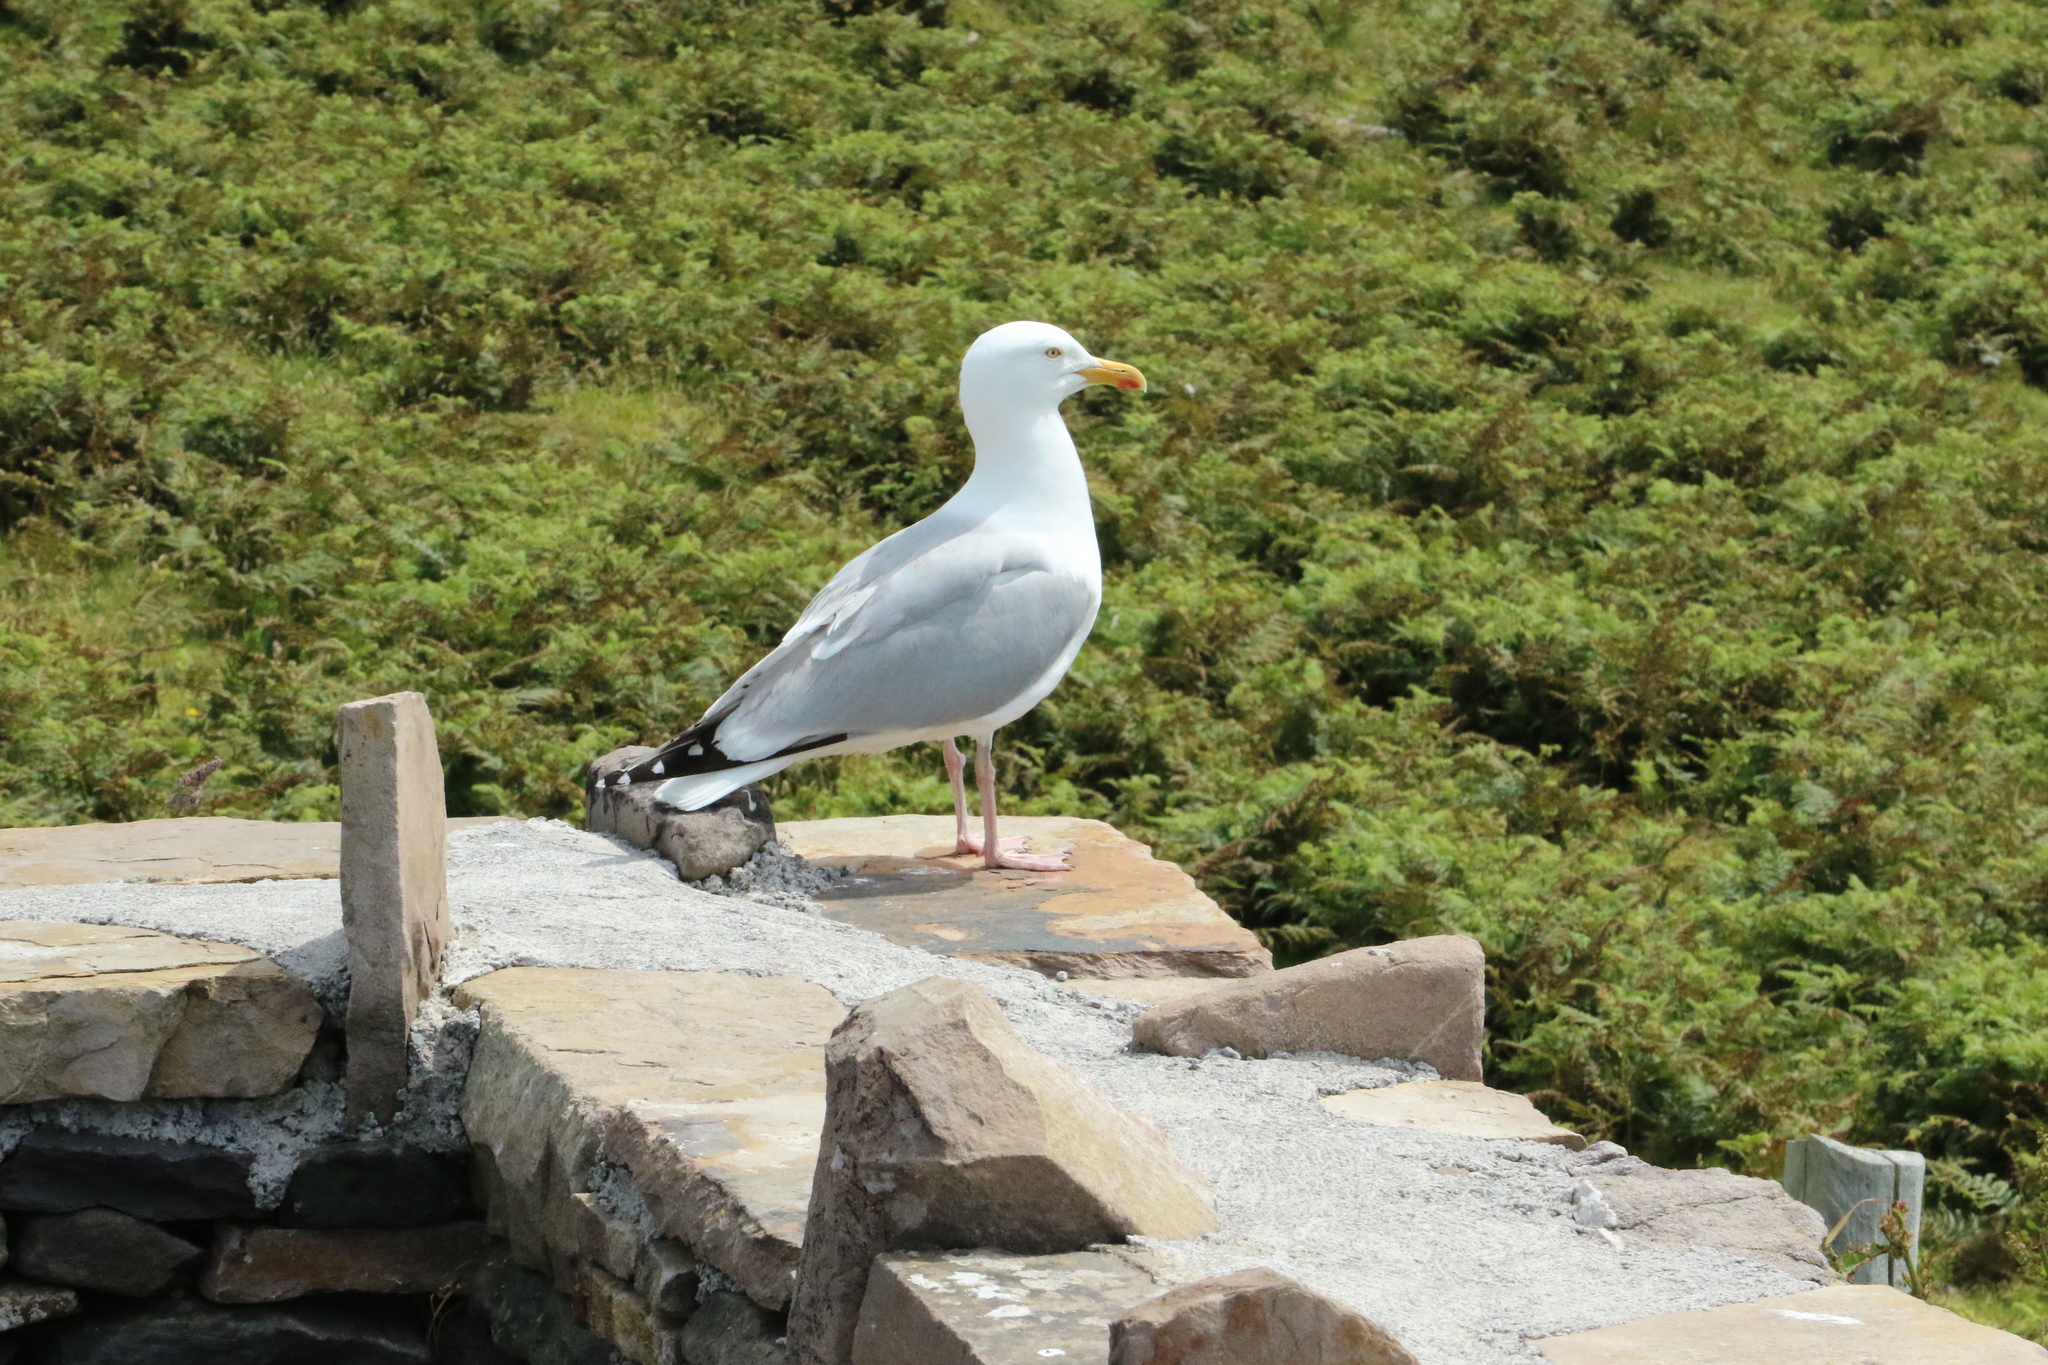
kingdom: Animalia
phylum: Chordata
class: Aves
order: Charadriiformes
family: Laridae
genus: Larus
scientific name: Larus argentatus
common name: Herring gull
